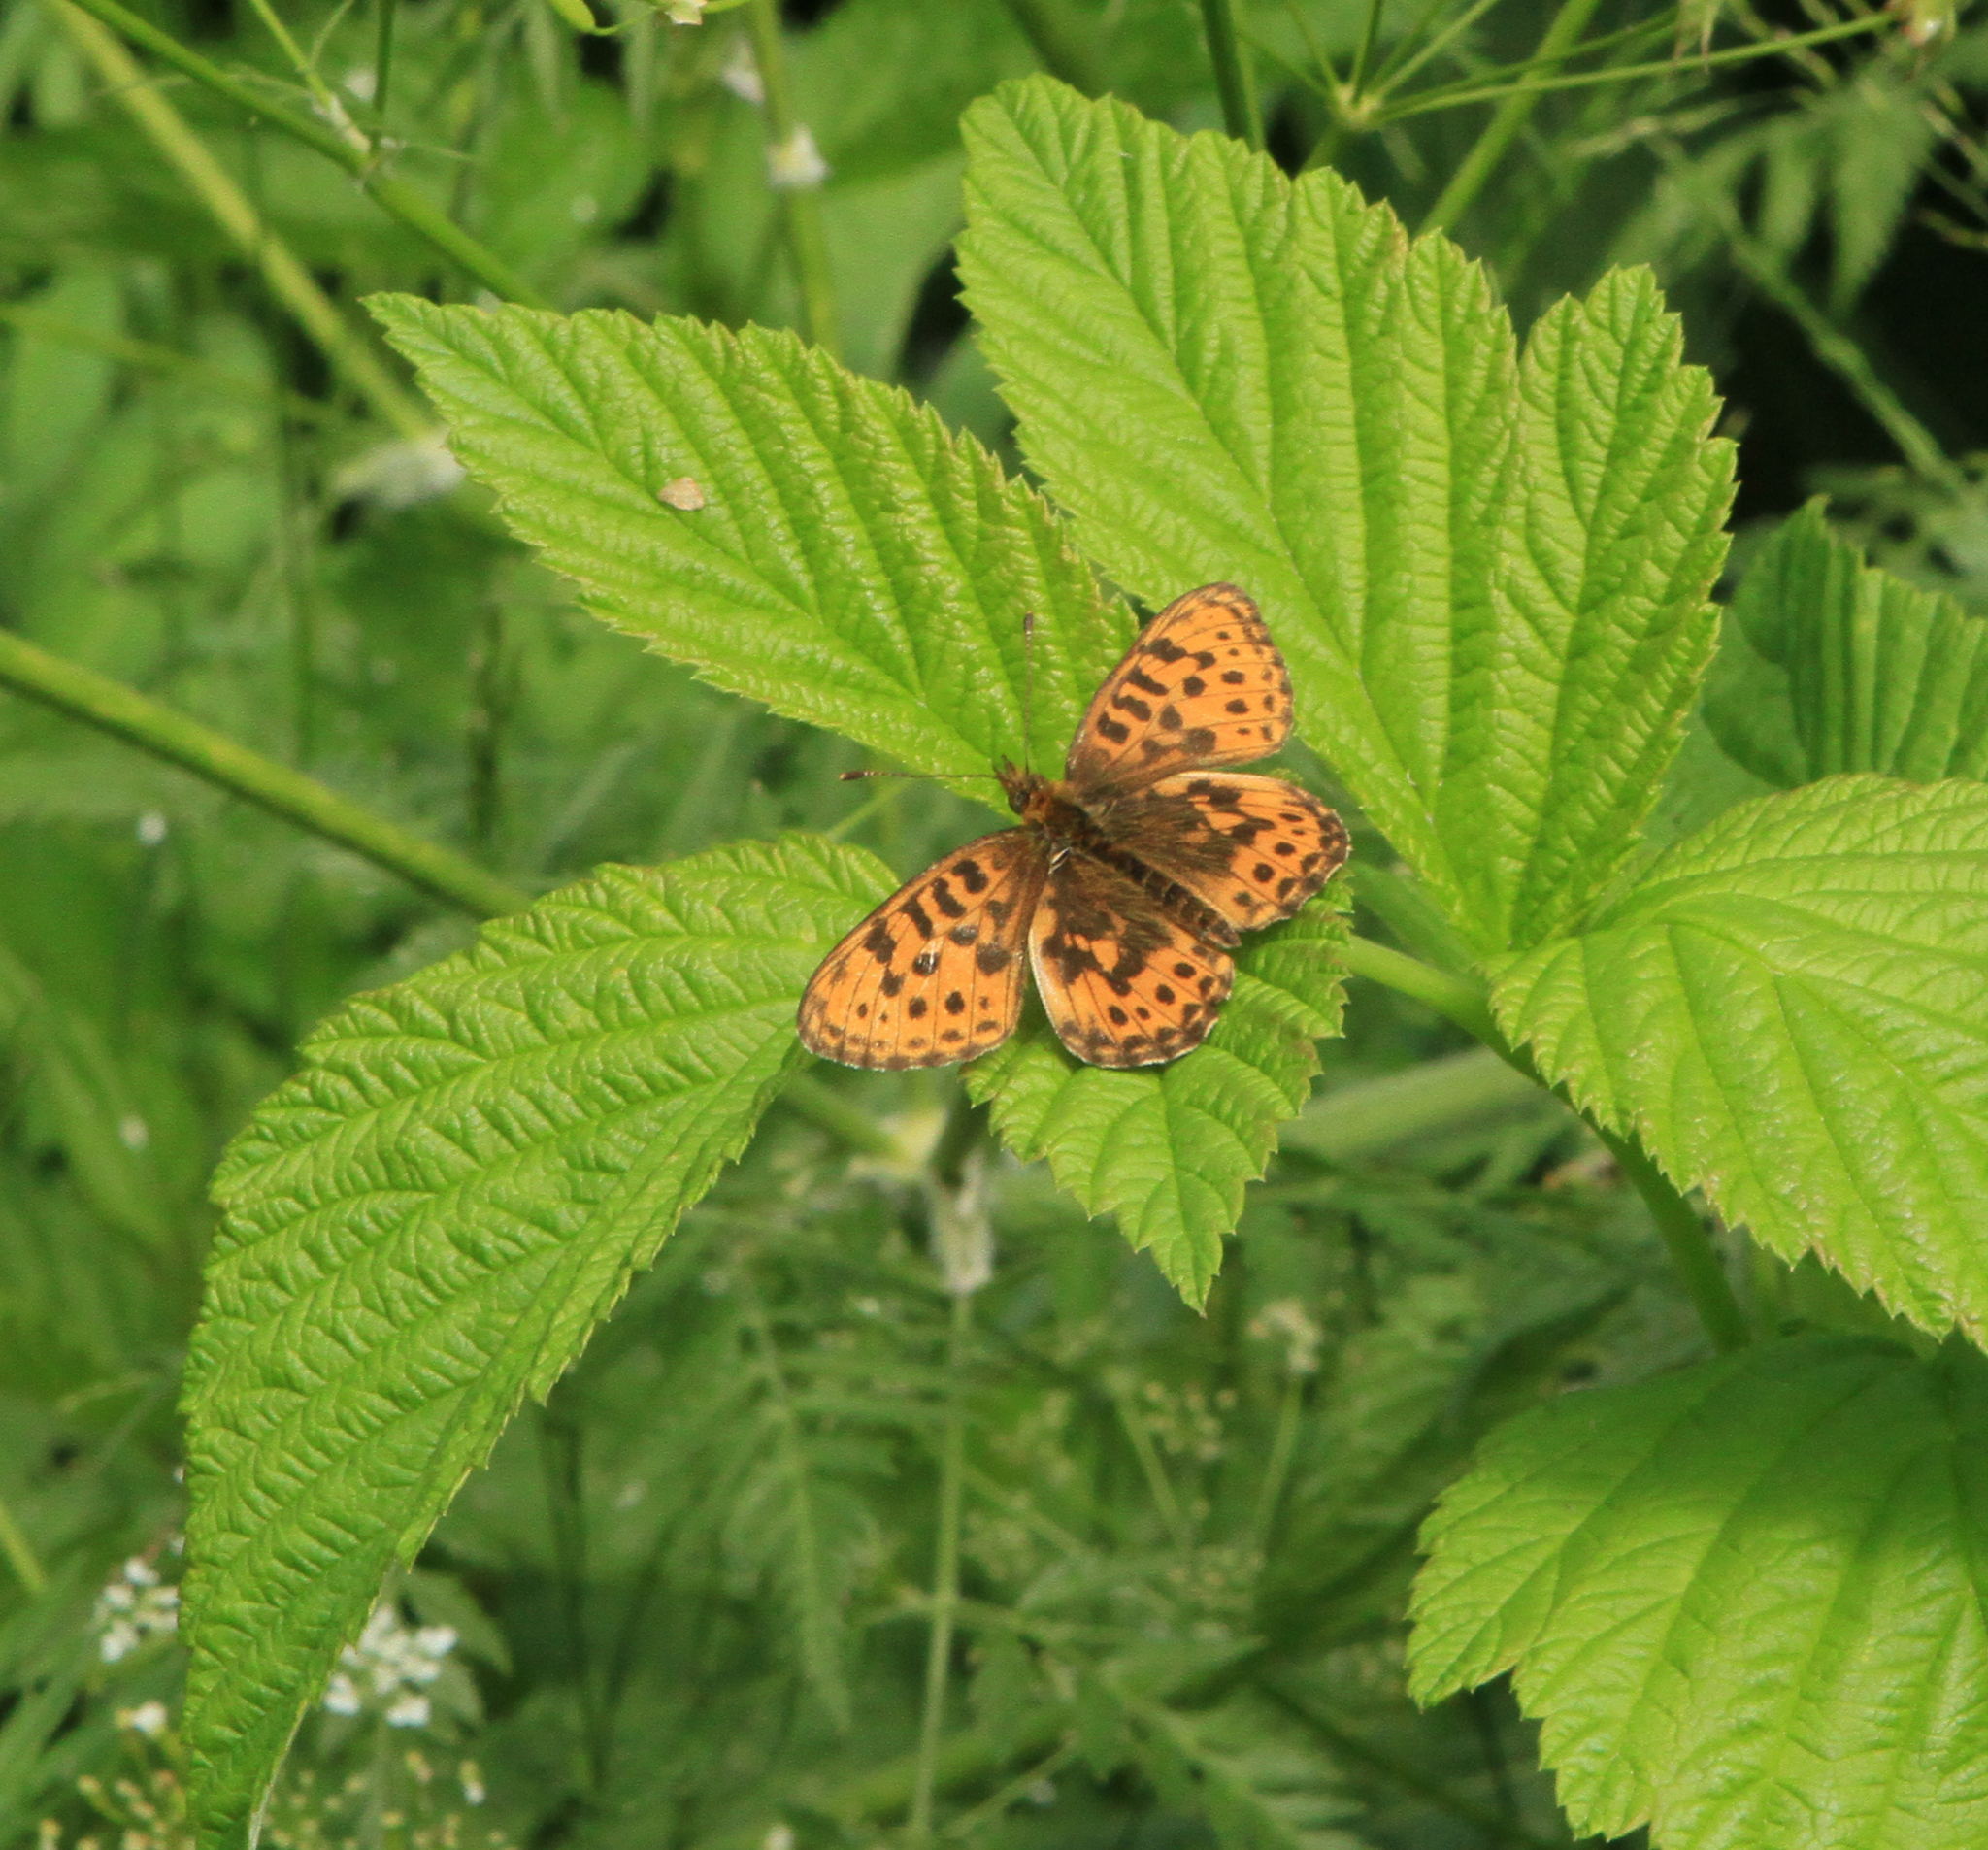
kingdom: Animalia
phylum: Arthropoda
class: Insecta
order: Lepidoptera
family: Nymphalidae
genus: Boloria
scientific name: Boloria thore
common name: Thor's fritillary
